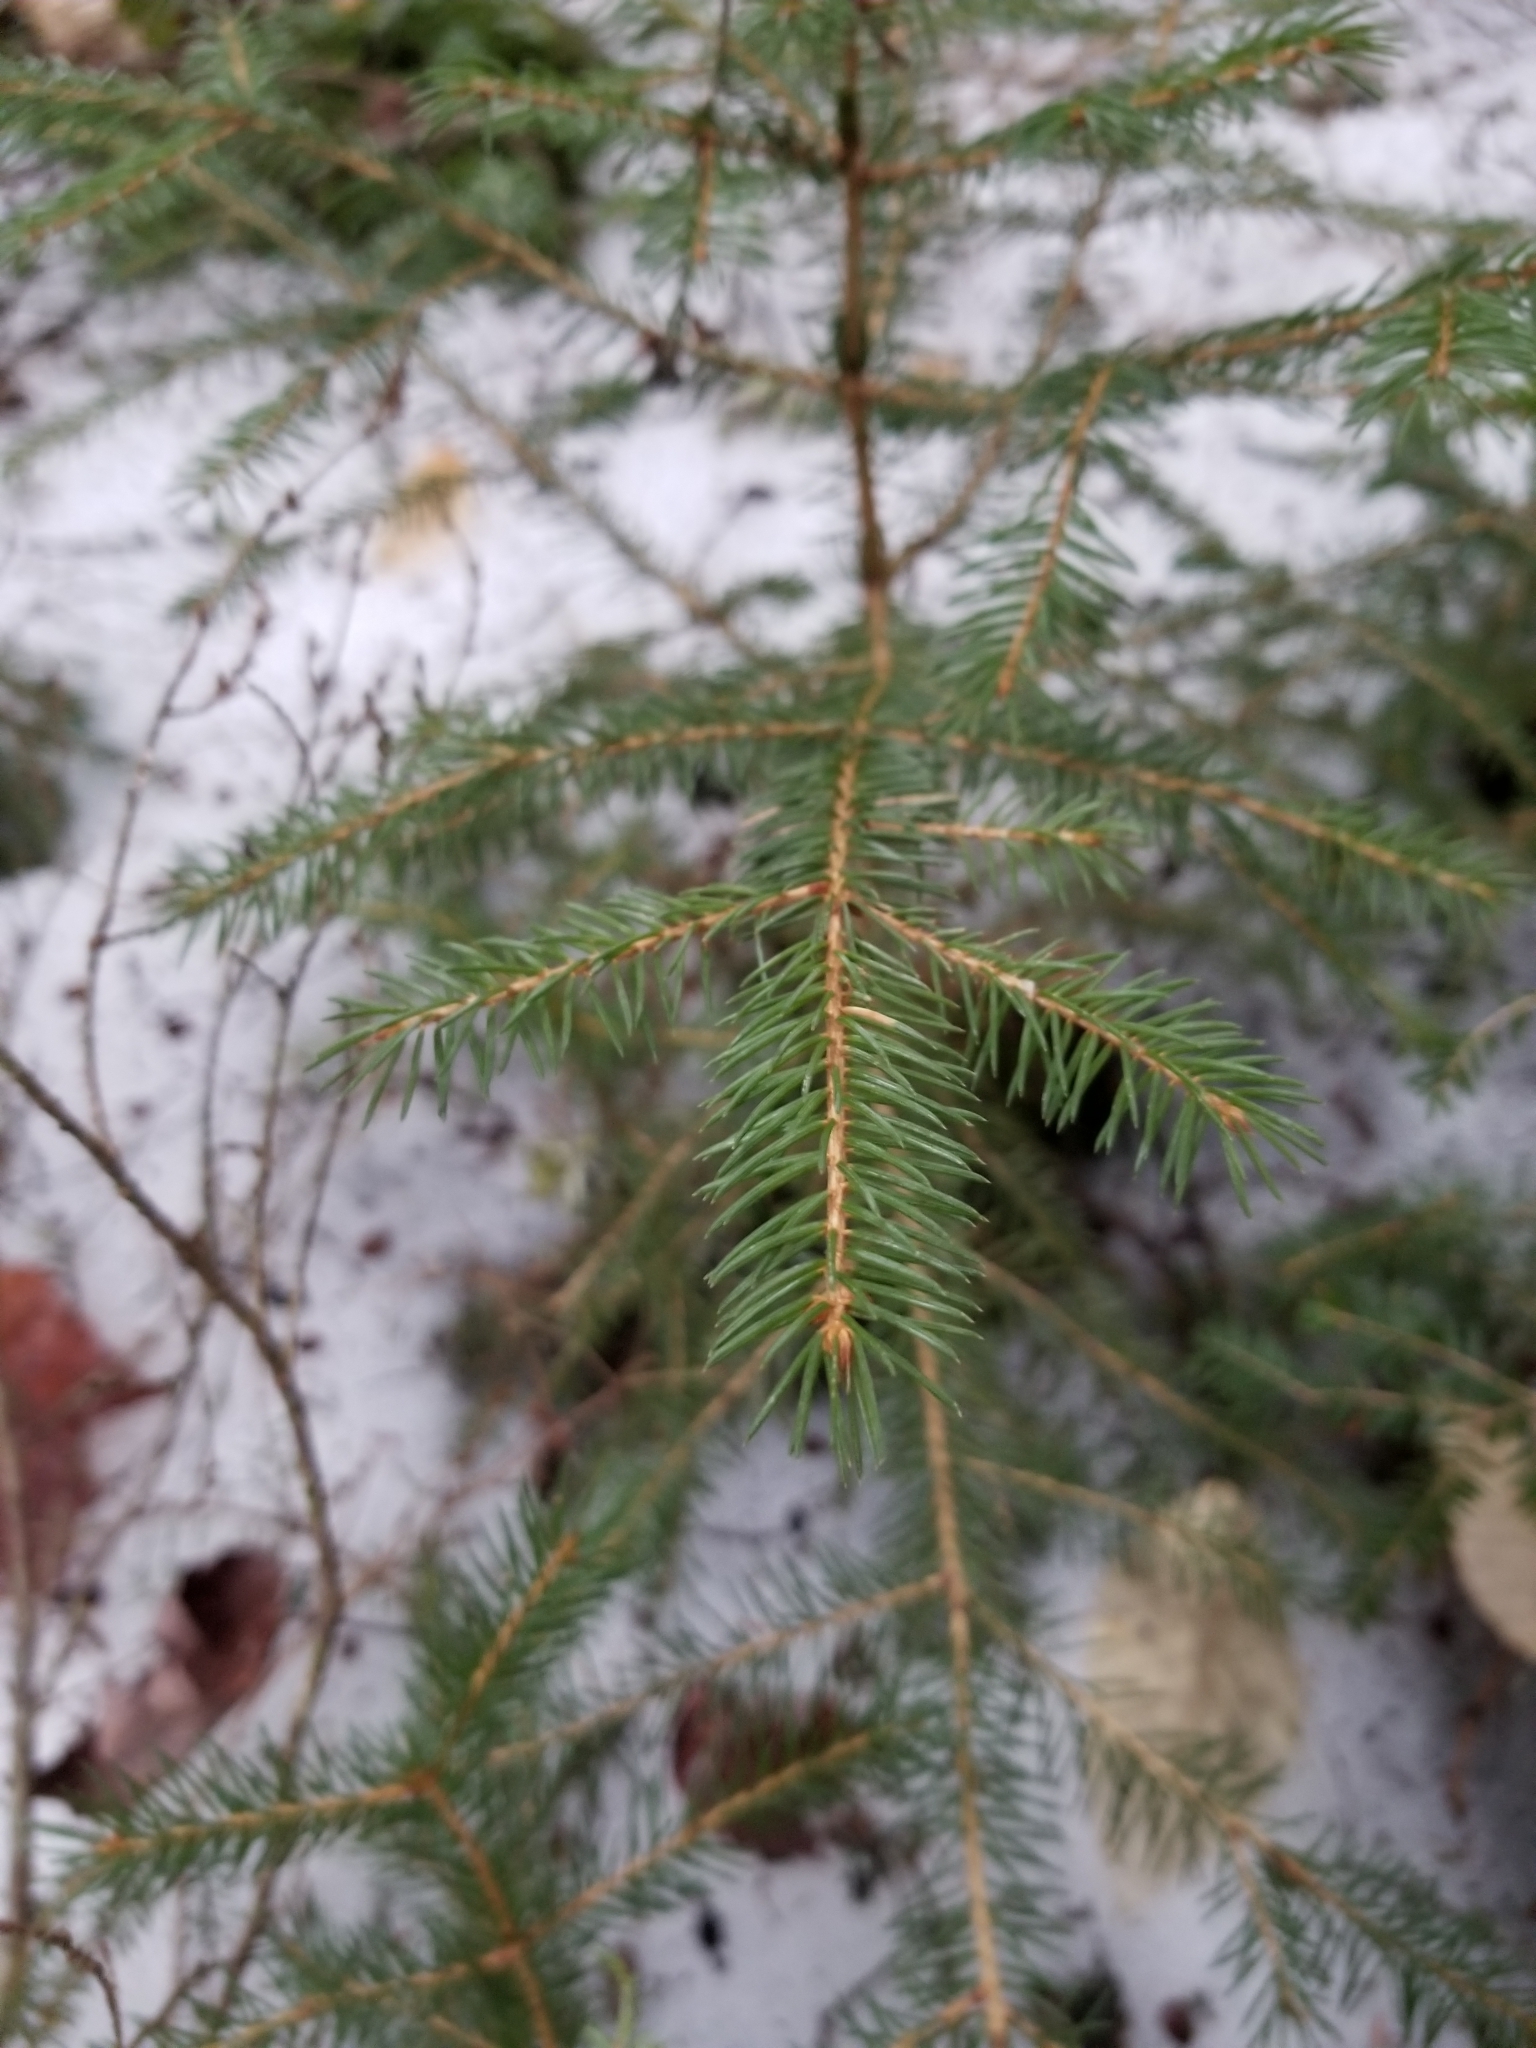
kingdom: Plantae
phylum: Tracheophyta
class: Pinopsida
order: Pinales
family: Pinaceae
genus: Picea
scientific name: Picea rubens
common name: Red spruce
